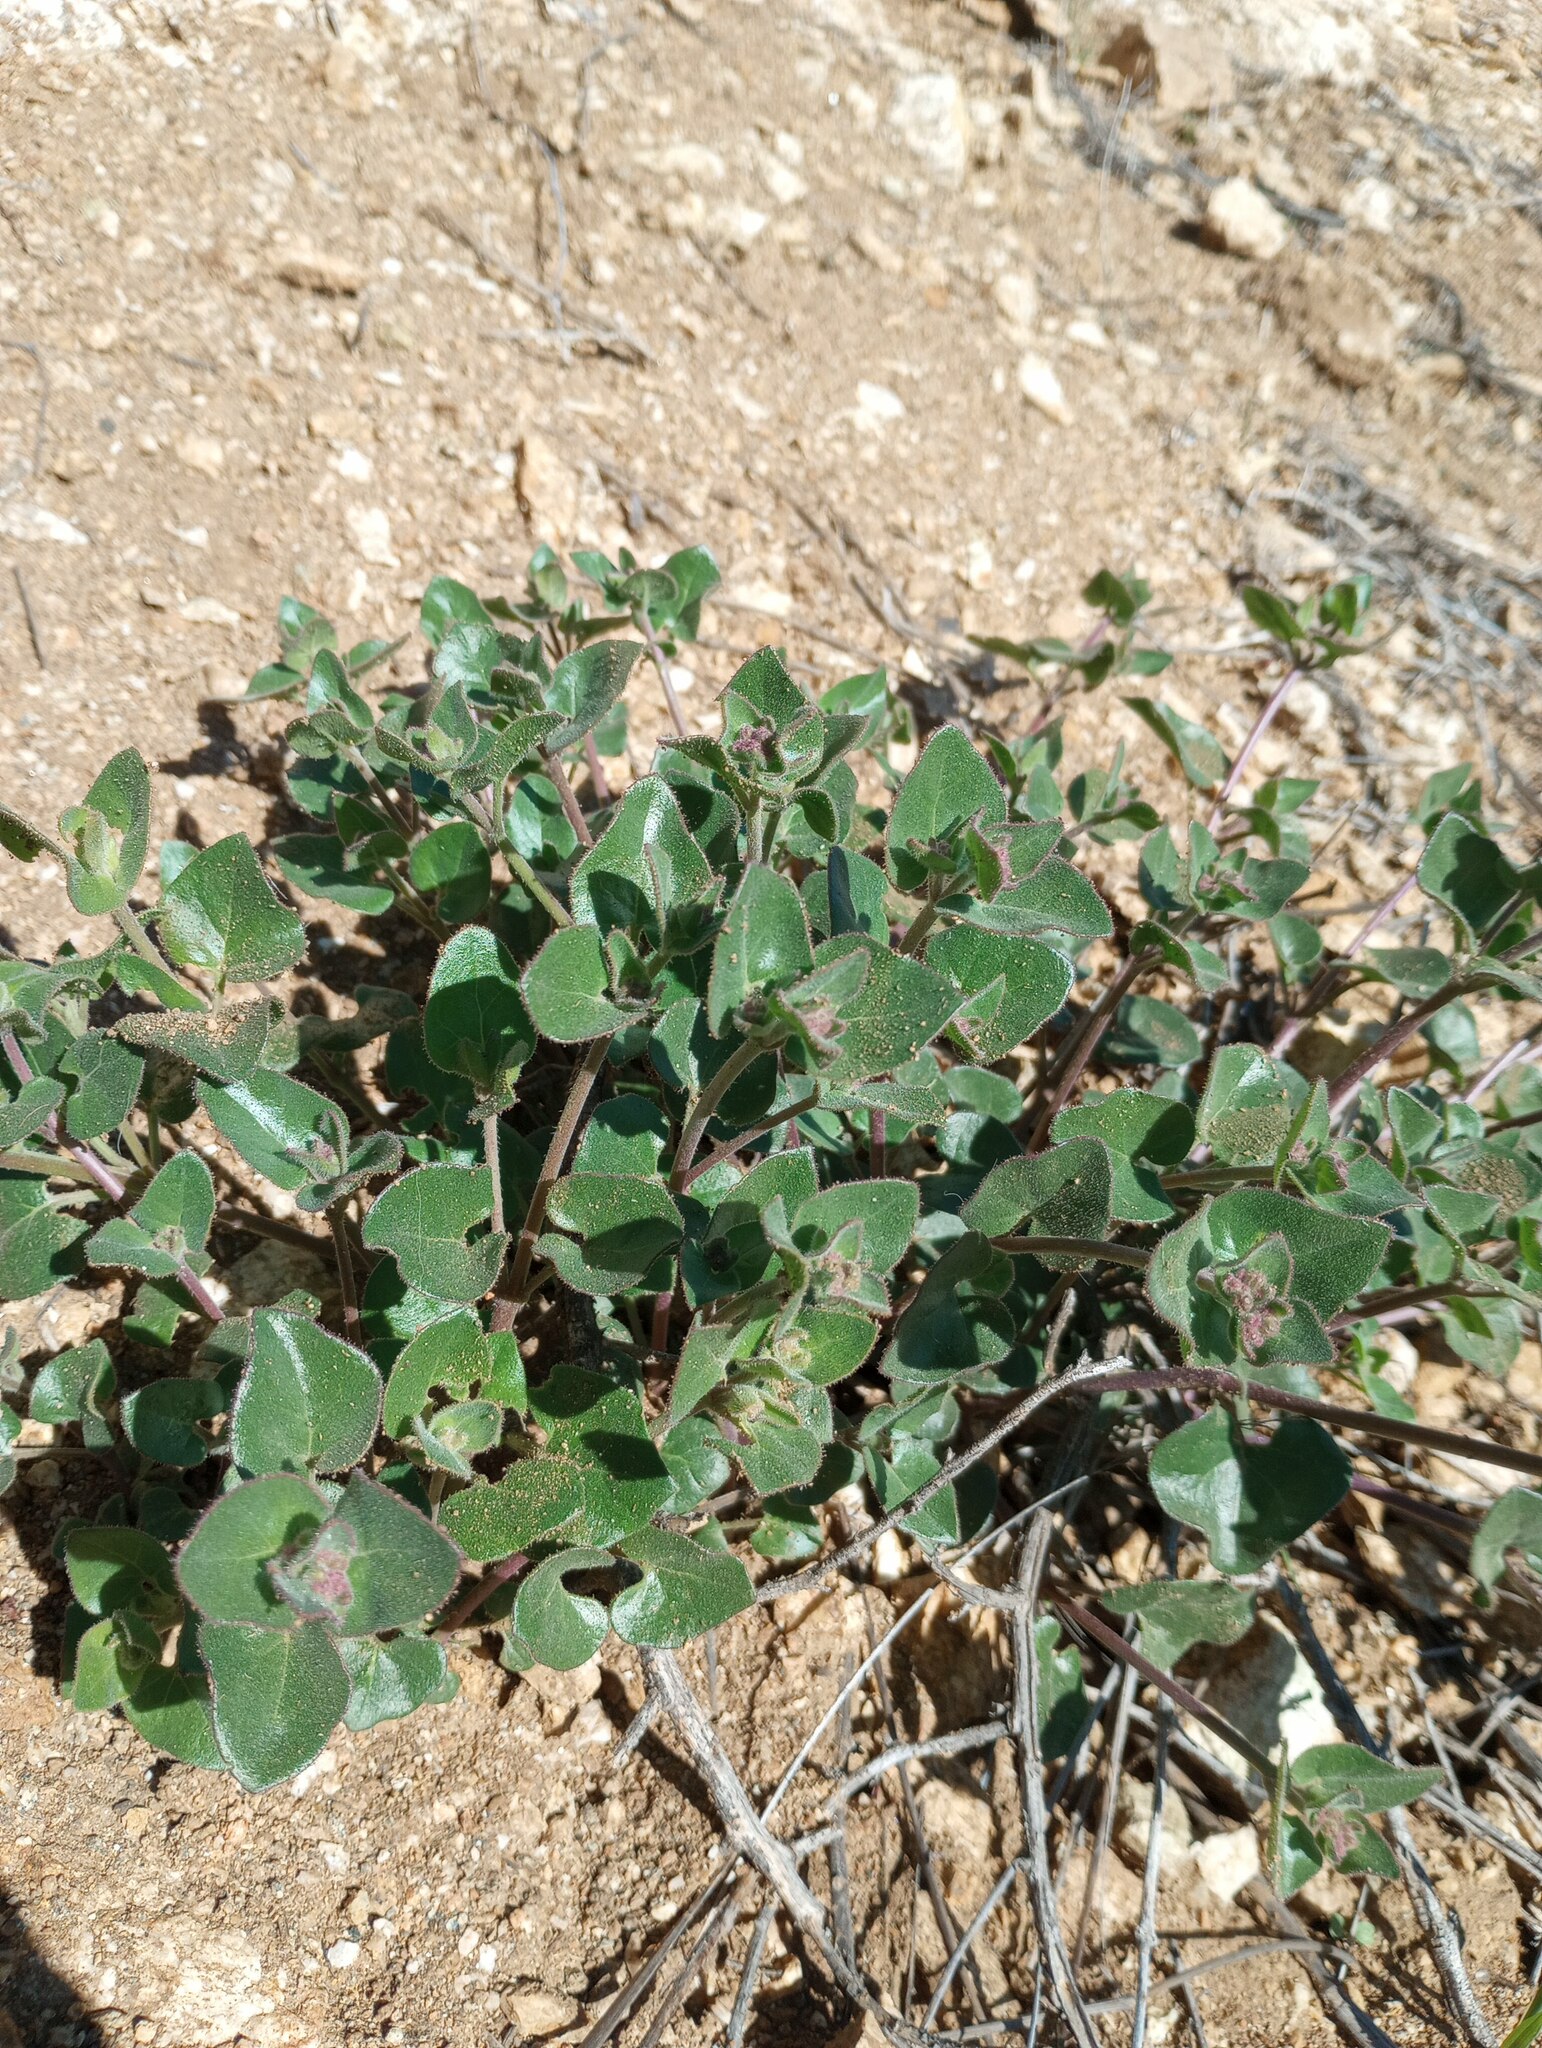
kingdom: Plantae
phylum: Tracheophyta
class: Magnoliopsida
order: Caryophyllales
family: Nyctaginaceae
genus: Mirabilis
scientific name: Mirabilis laevis
